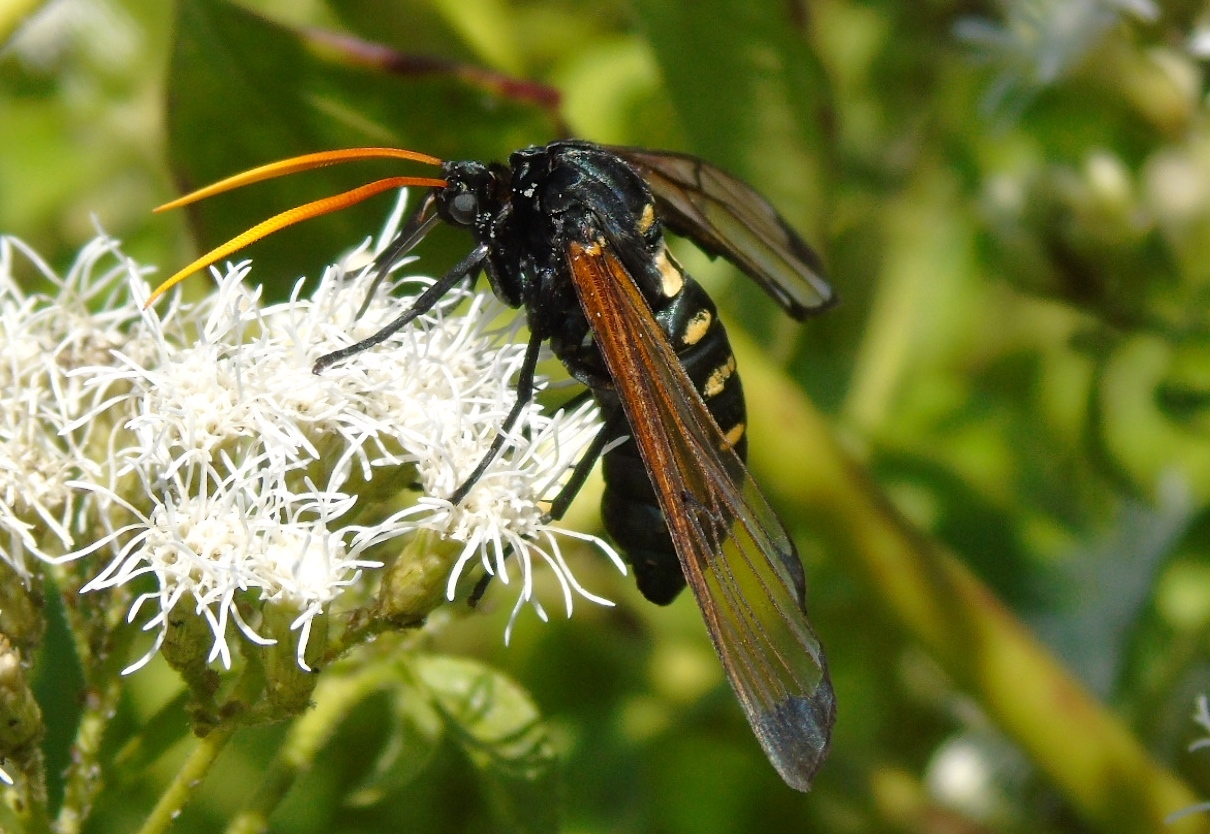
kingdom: Animalia
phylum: Arthropoda
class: Insecta
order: Lepidoptera
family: Erebidae
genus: Isanthrene
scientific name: Isanthrene
